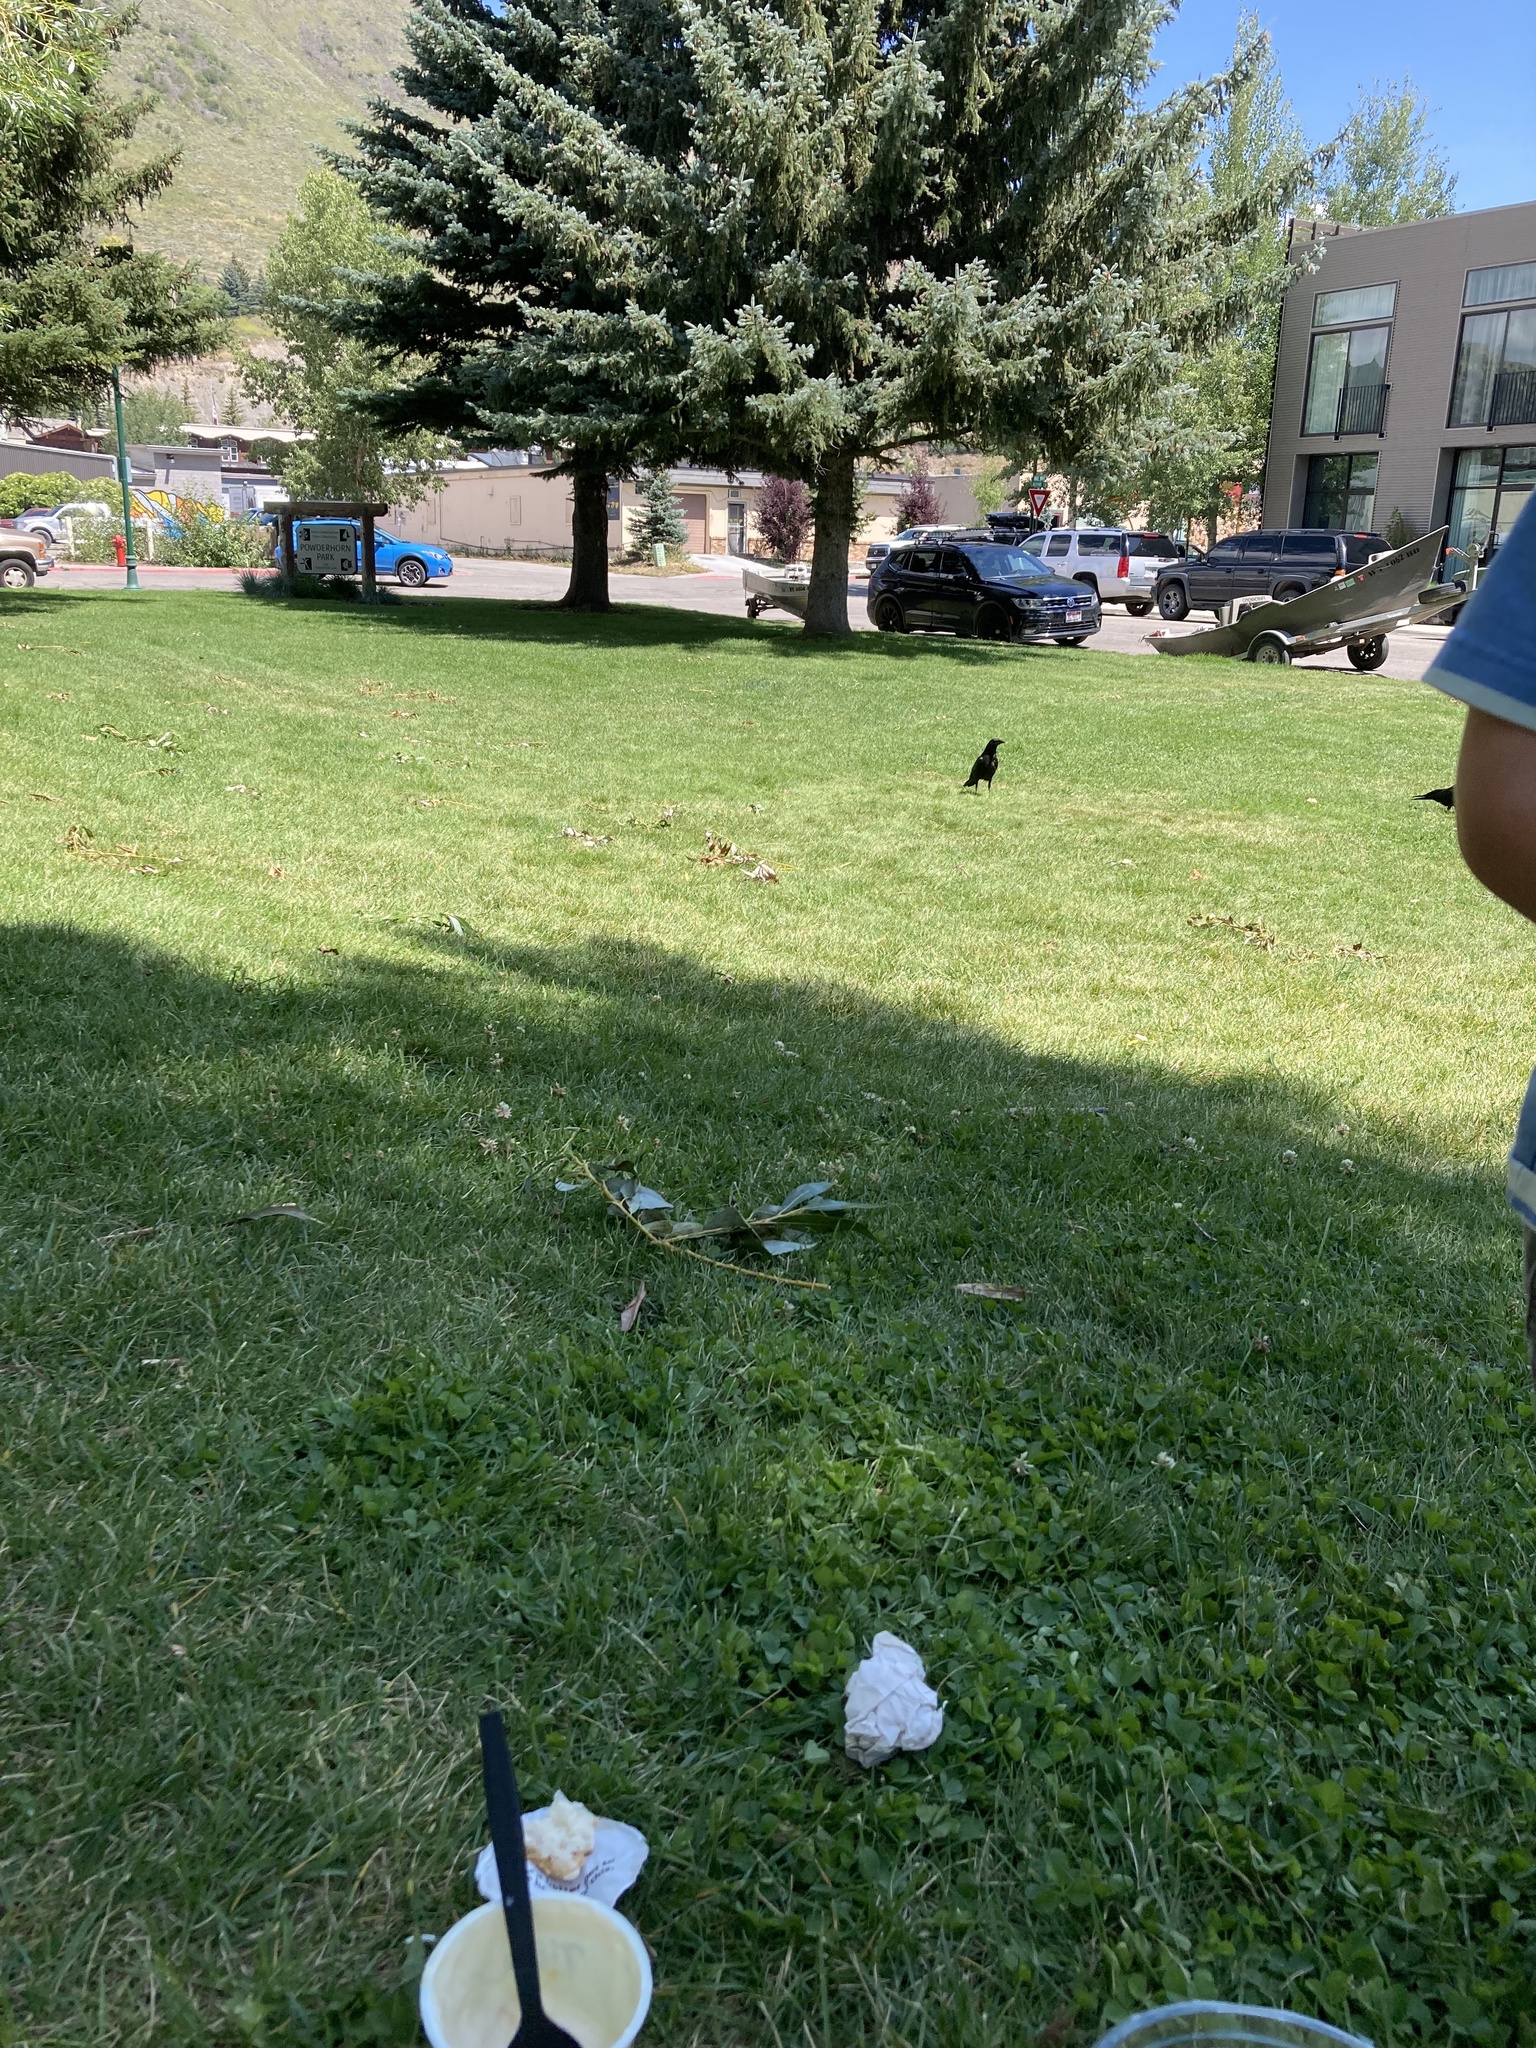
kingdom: Animalia
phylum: Chordata
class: Aves
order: Passeriformes
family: Corvidae
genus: Corvus
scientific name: Corvus brachyrhynchos
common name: American crow
